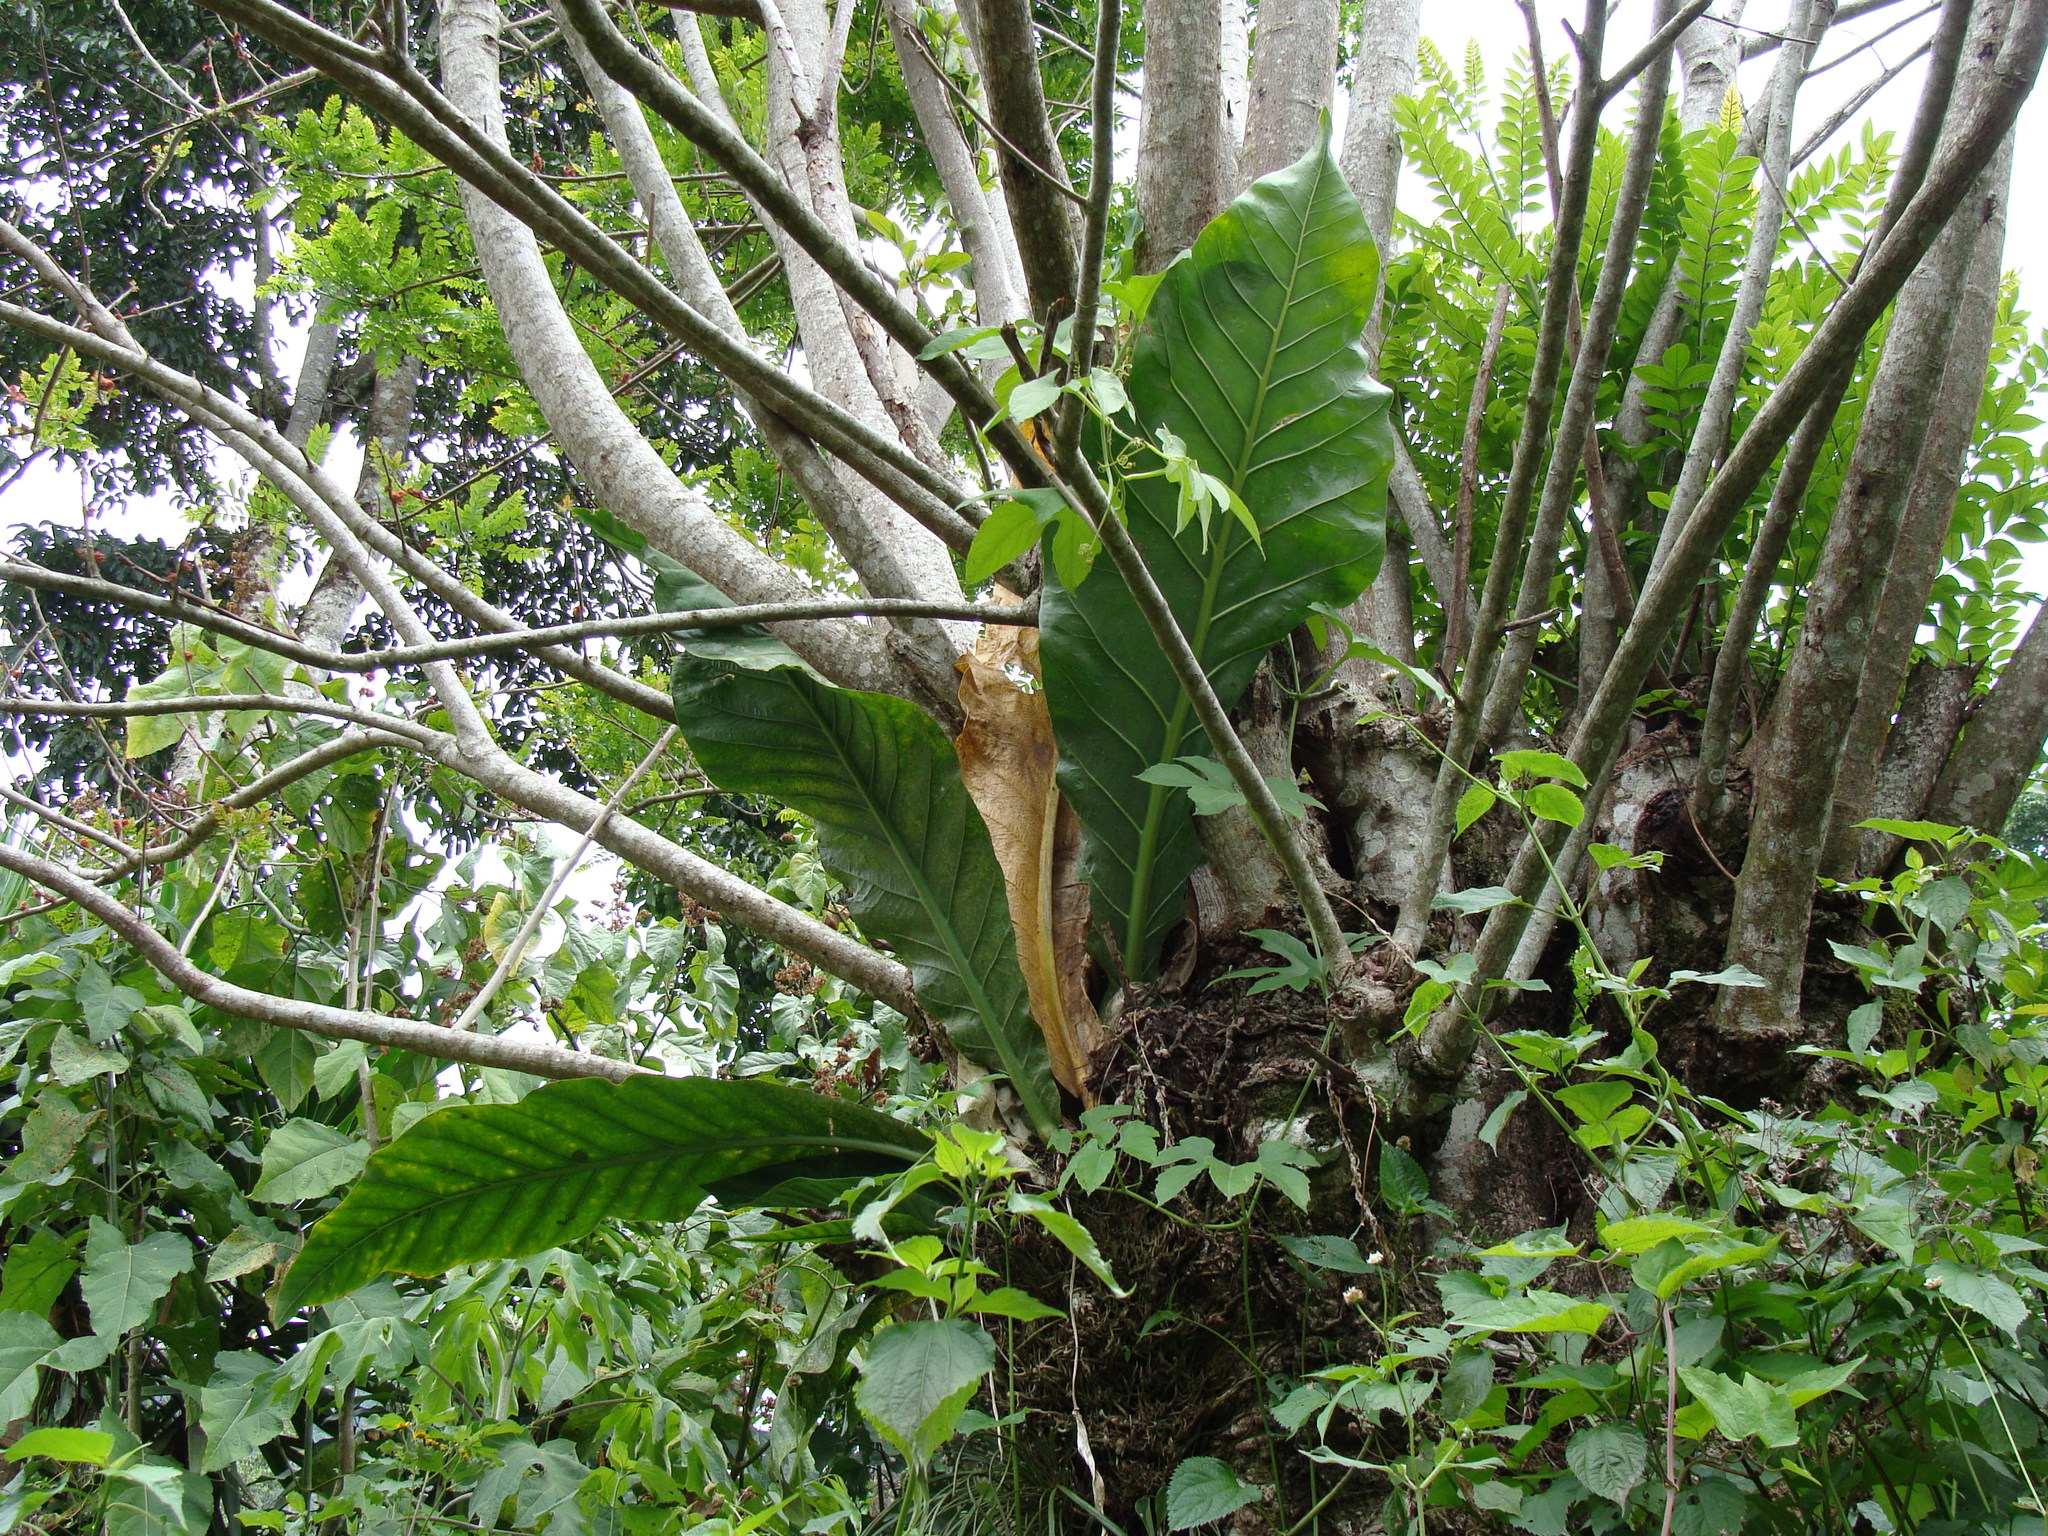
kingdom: Plantae
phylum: Tracheophyta
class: Liliopsida
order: Alismatales
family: Araceae
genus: Anthurium
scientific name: Anthurium salvinii
